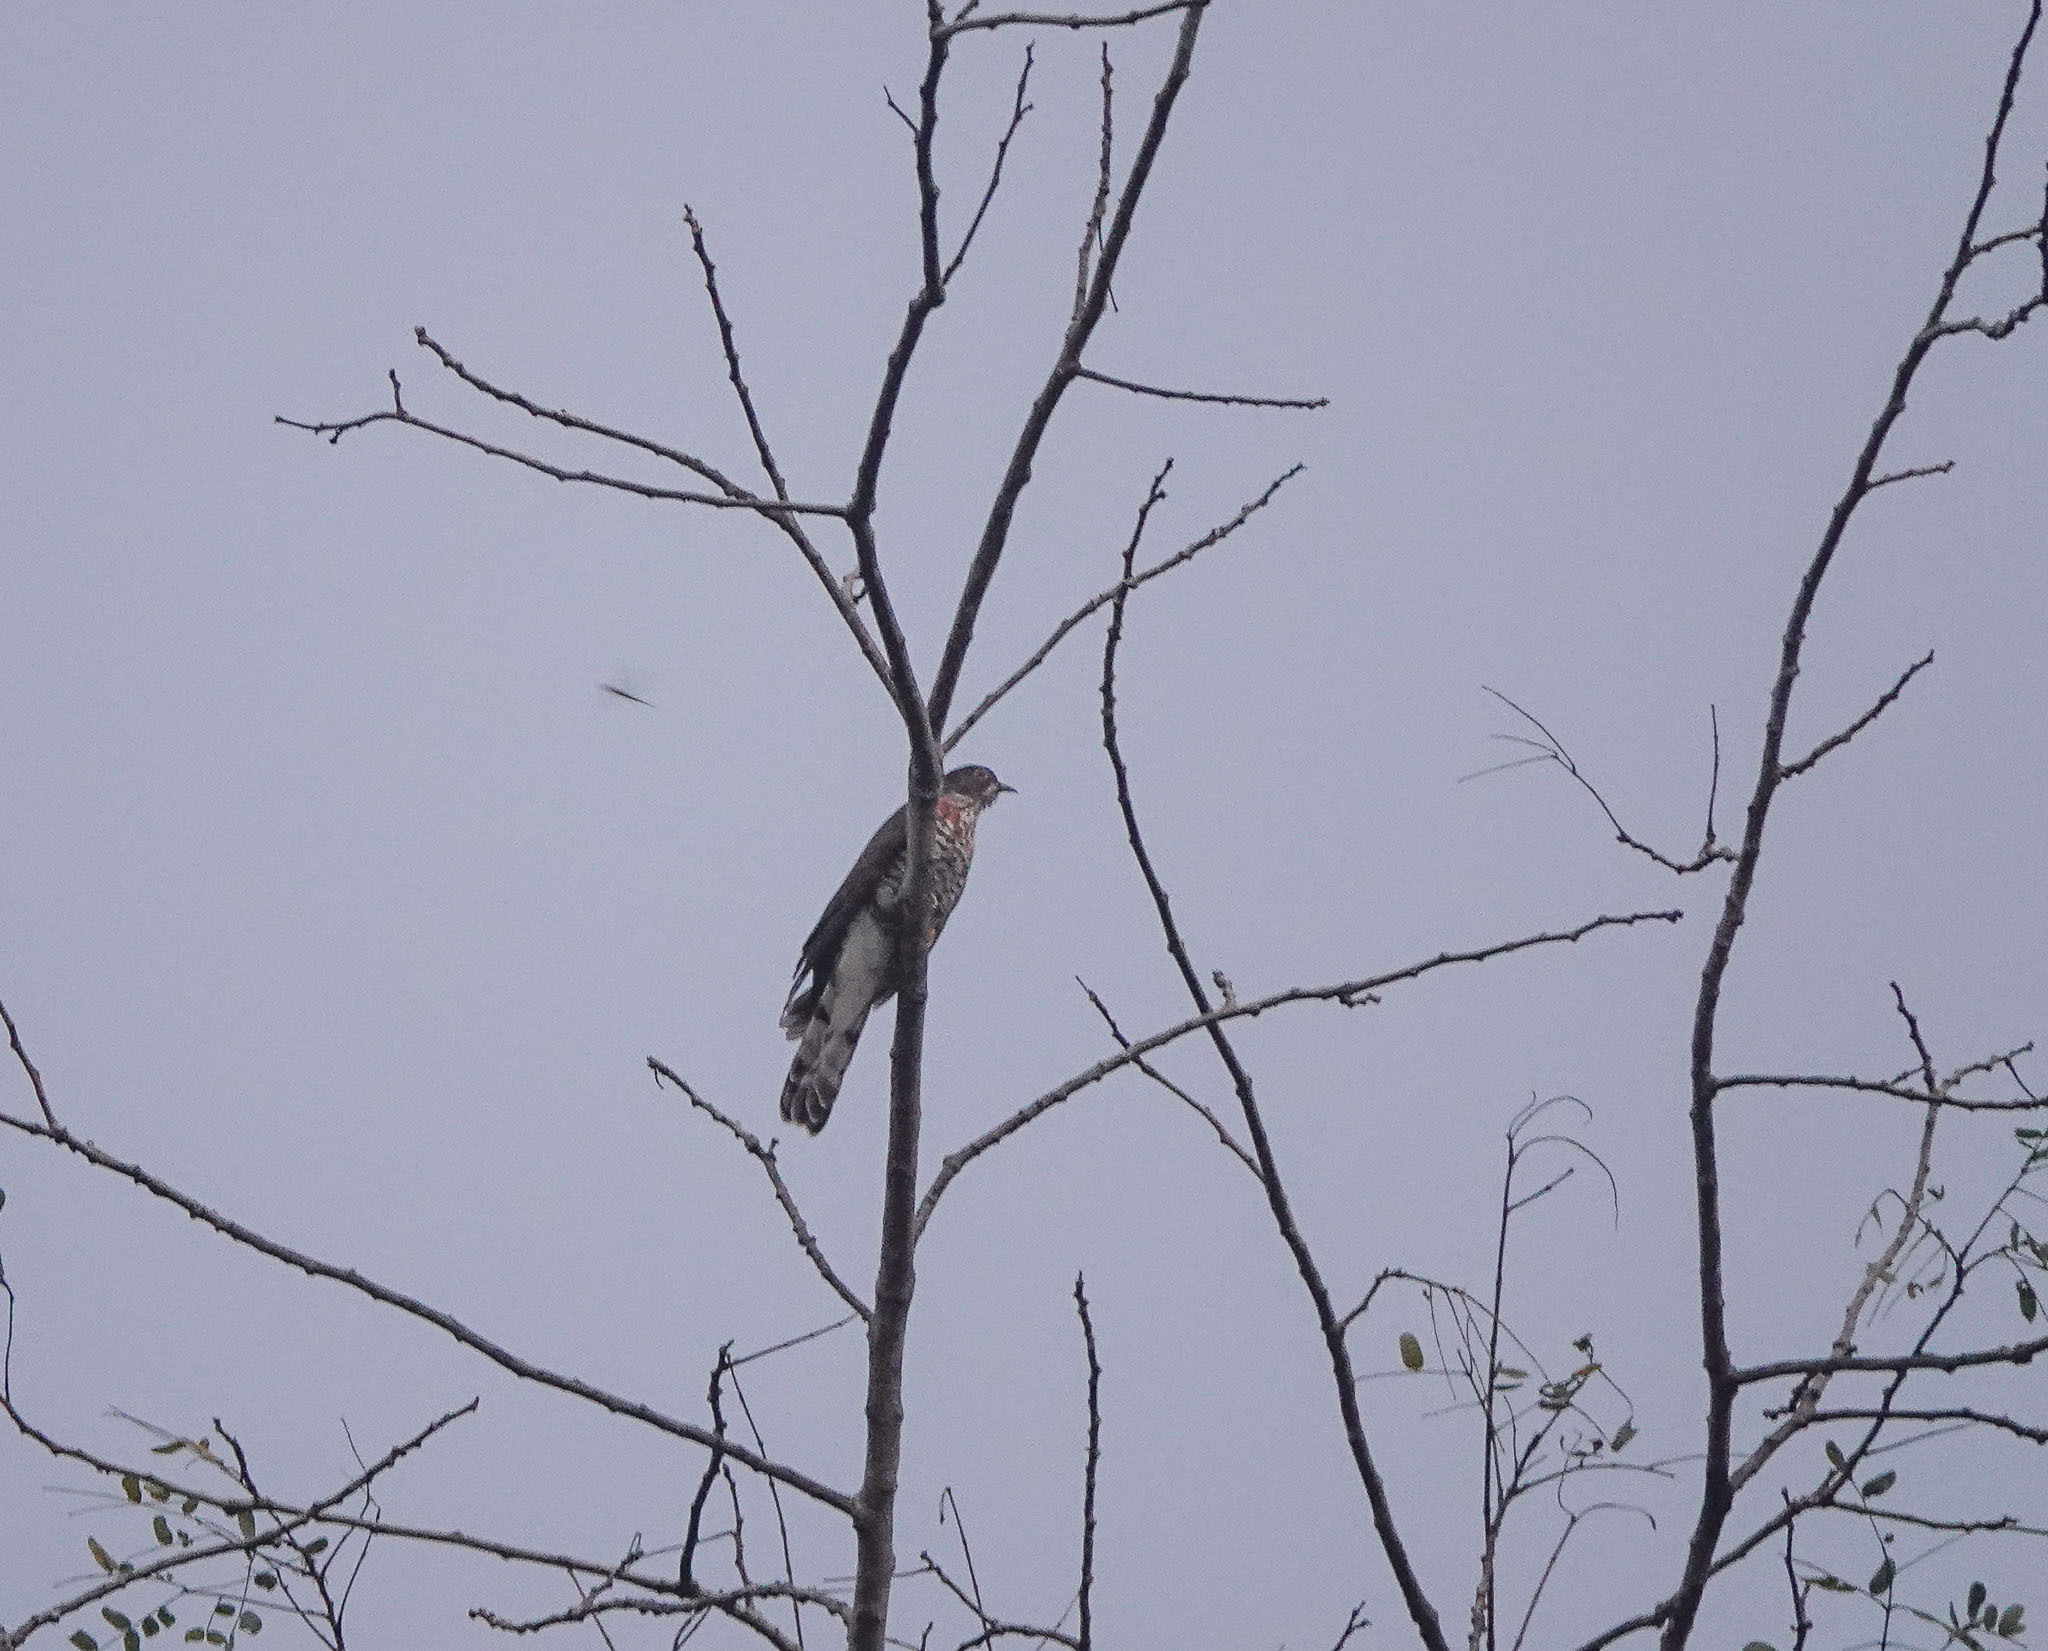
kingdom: Animalia
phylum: Chordata
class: Aves
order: Cuculiformes
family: Cuculidae
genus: Cuculus
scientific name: Cuculus sparverioides
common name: Large hawk cuckoo
